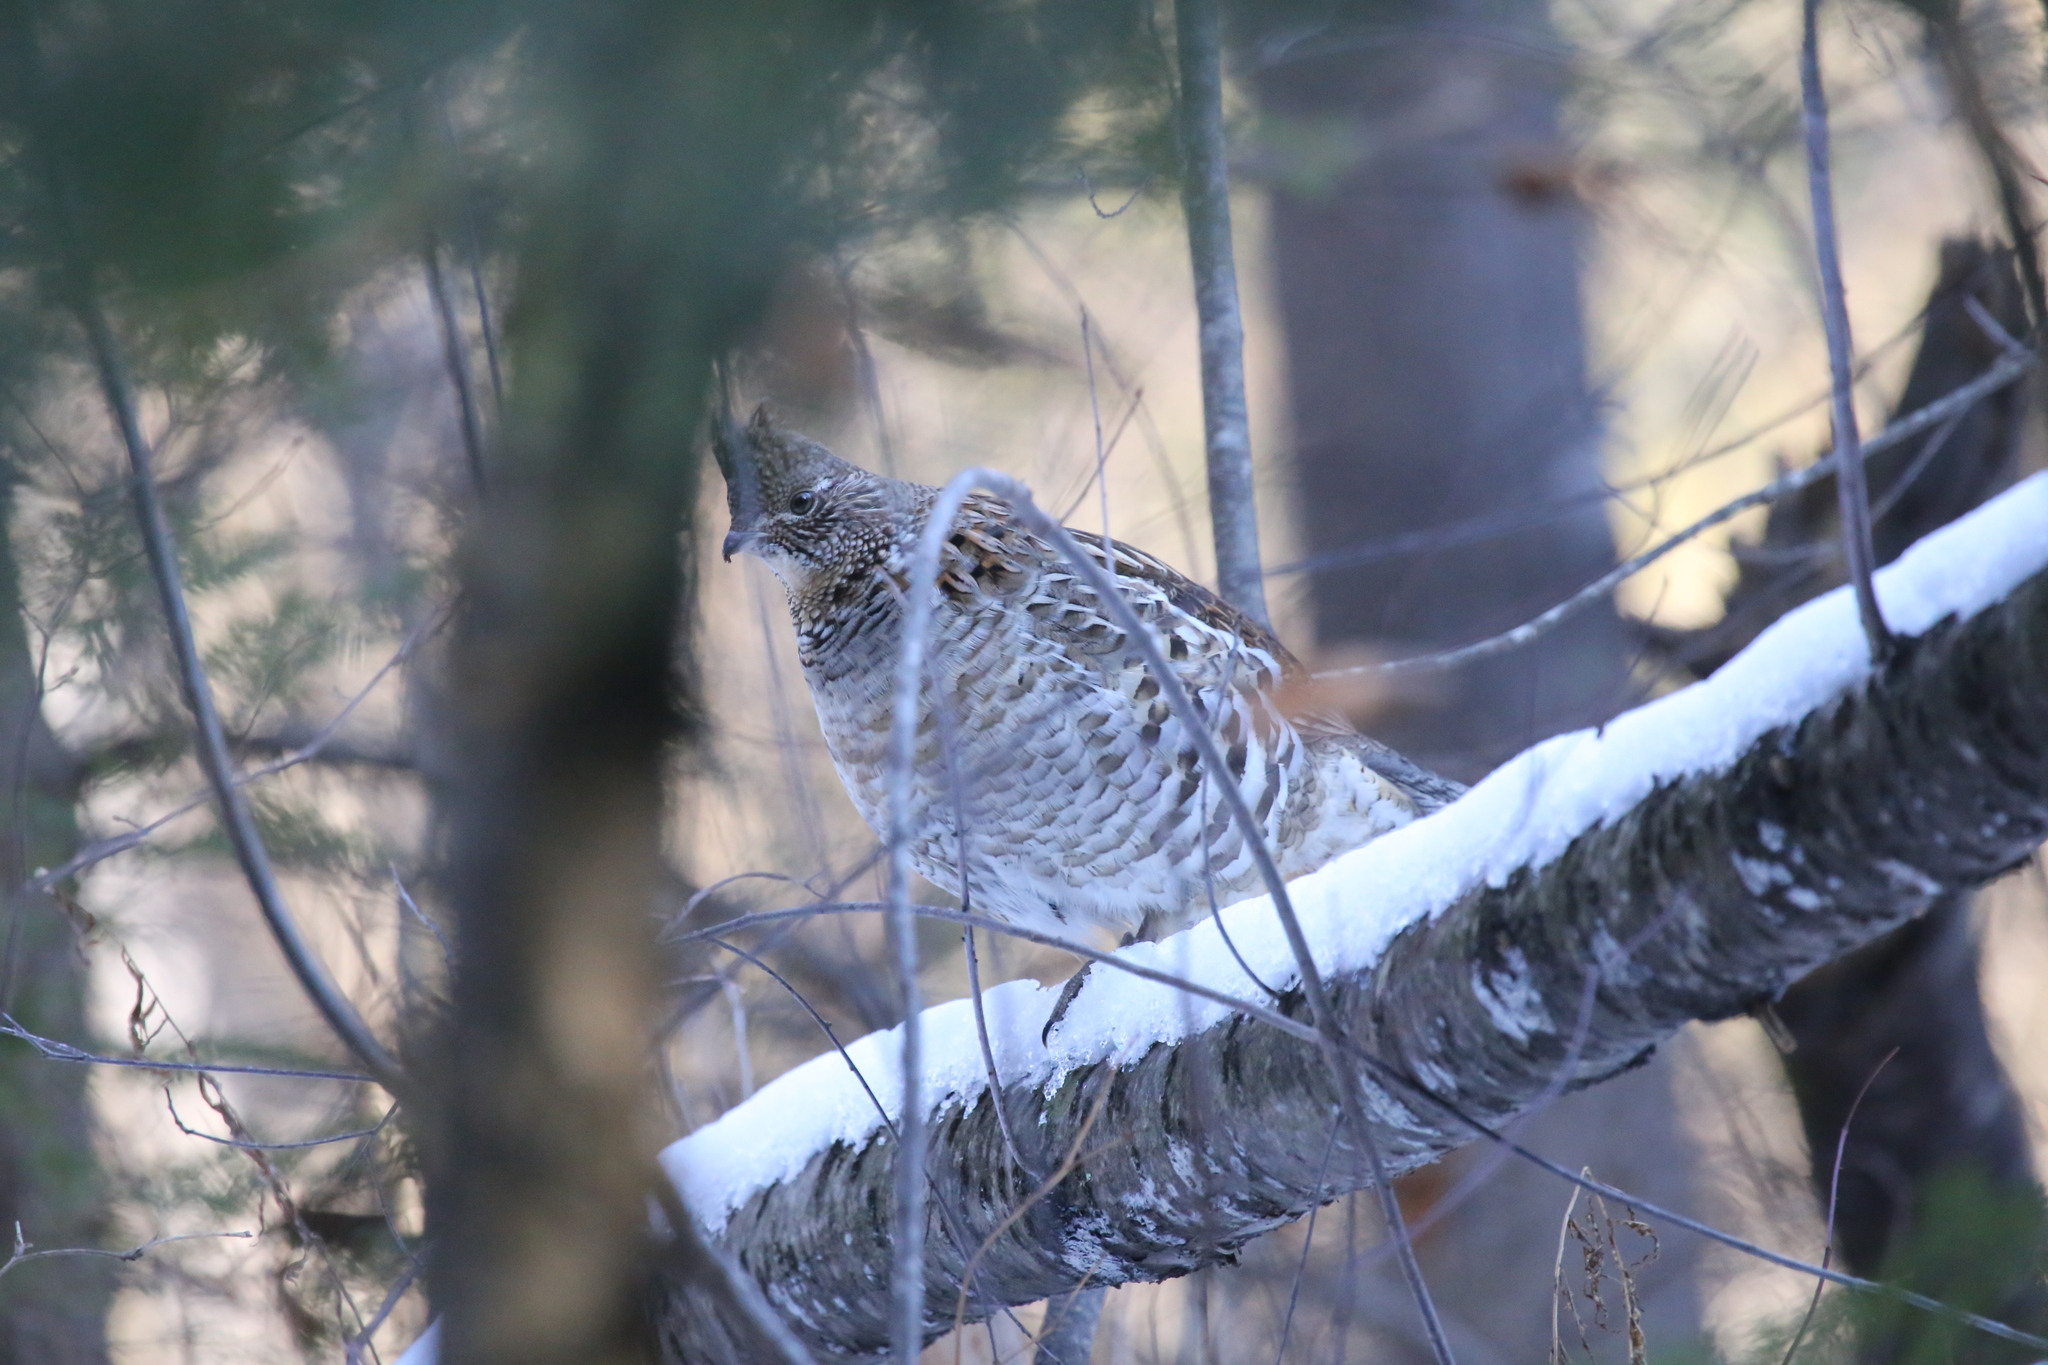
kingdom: Animalia
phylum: Chordata
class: Aves
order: Galliformes
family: Phasianidae
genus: Bonasa
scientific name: Bonasa umbellus
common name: Ruffed grouse
